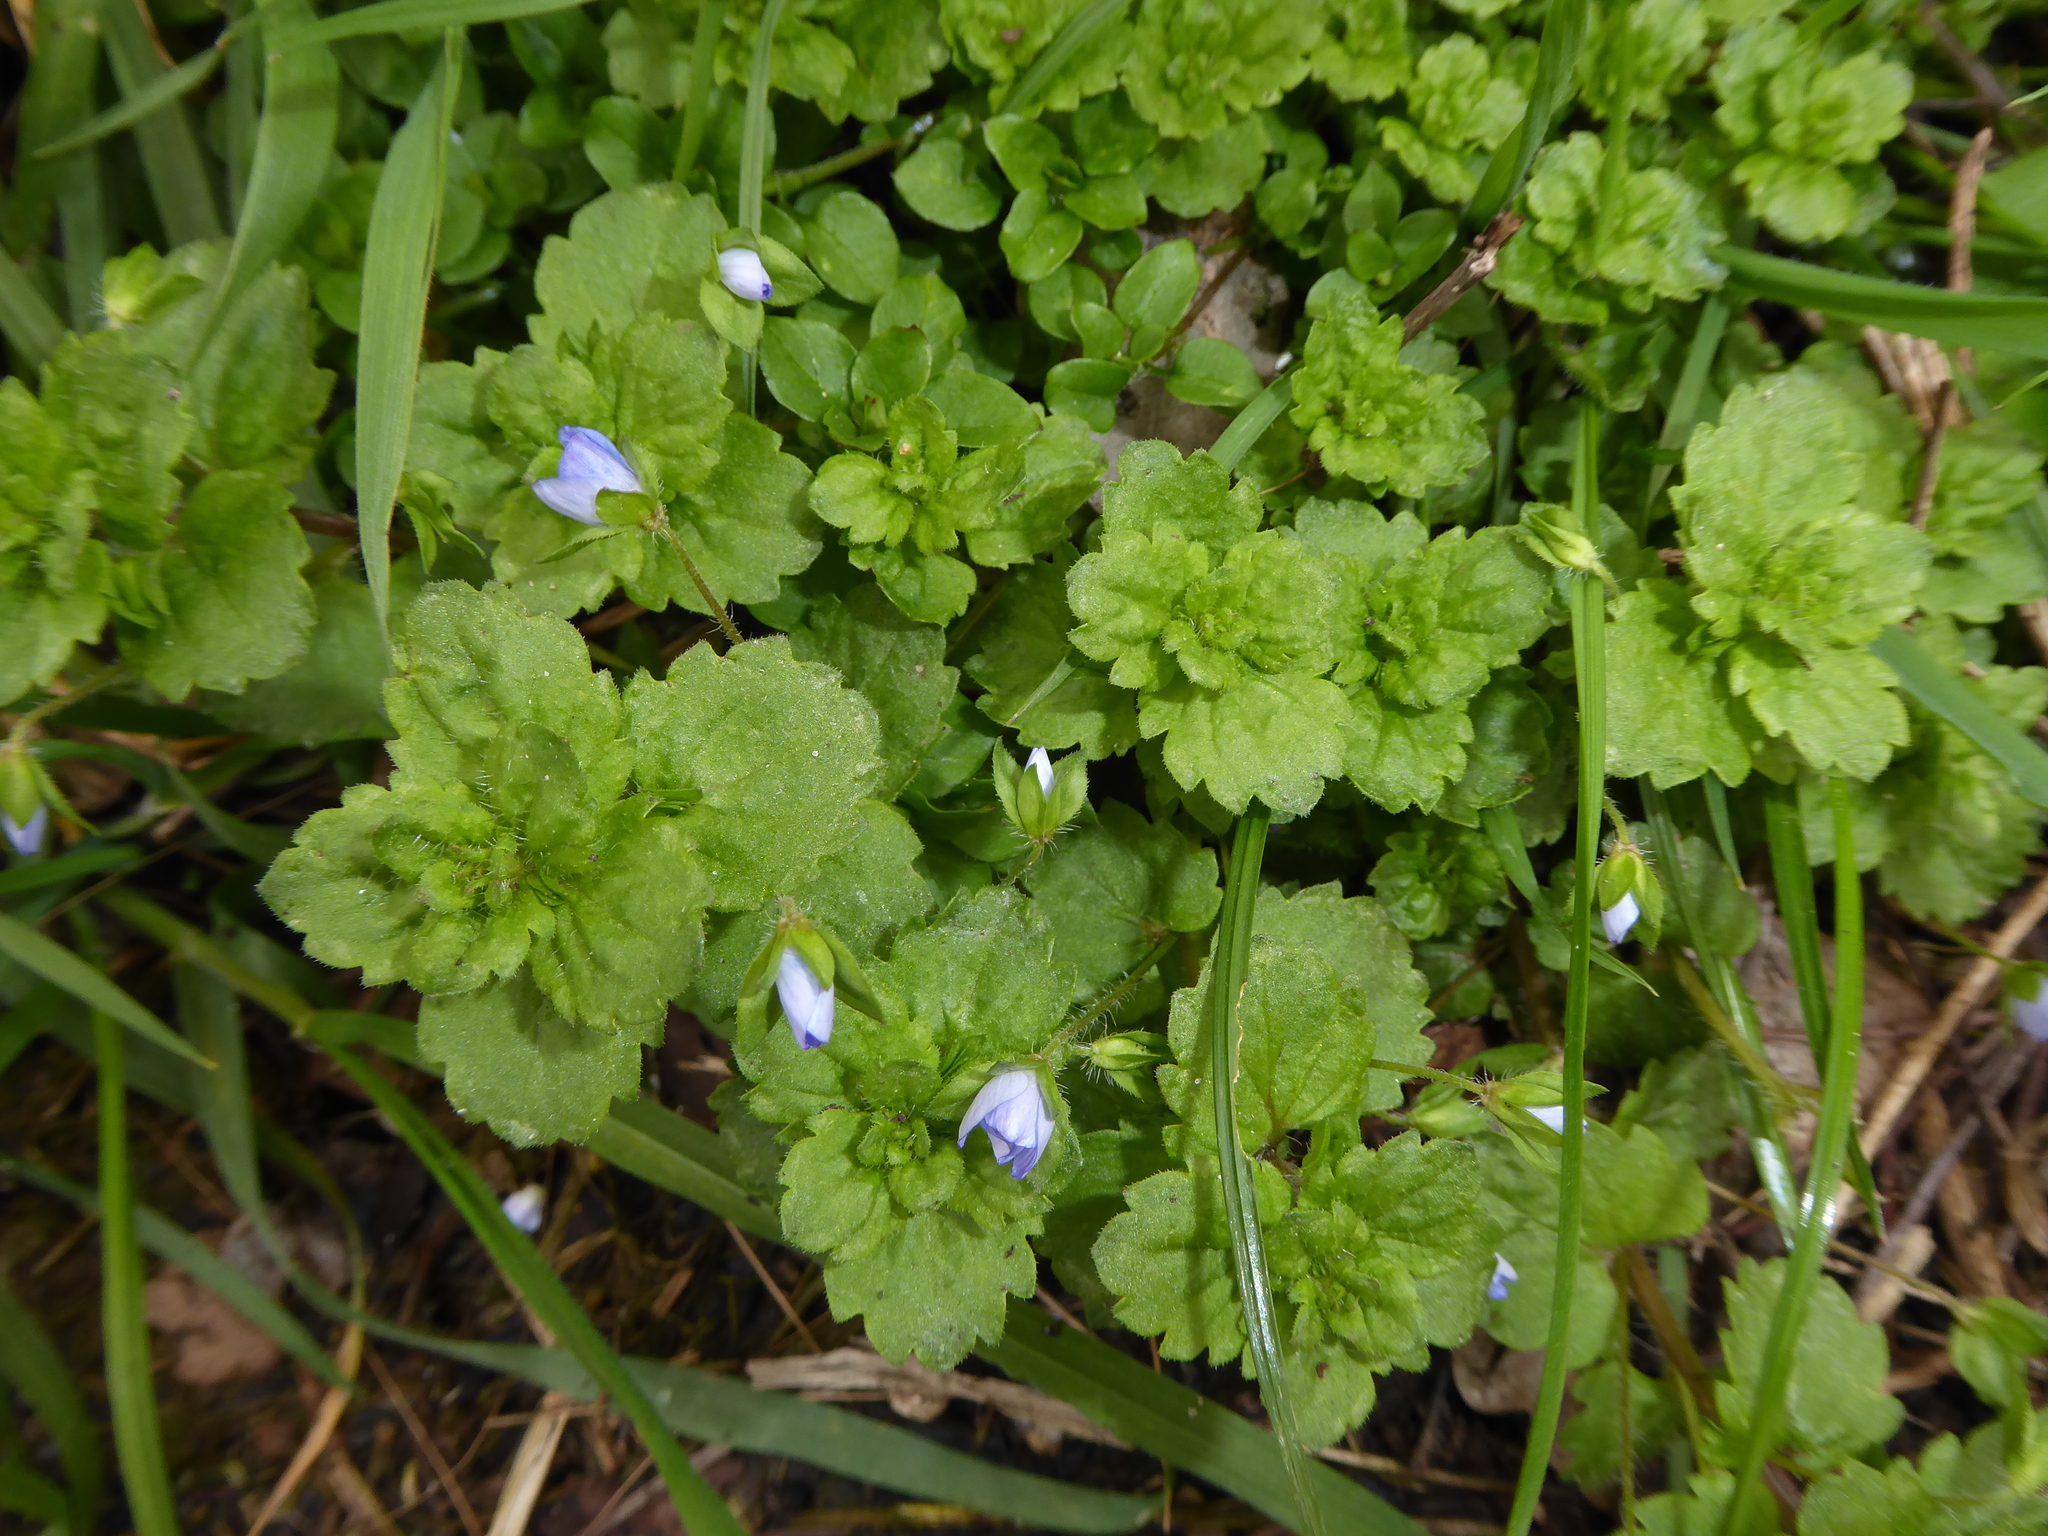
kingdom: Plantae
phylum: Tracheophyta
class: Magnoliopsida
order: Lamiales
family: Plantaginaceae
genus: Veronica
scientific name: Veronica persica
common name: Common field-speedwell
